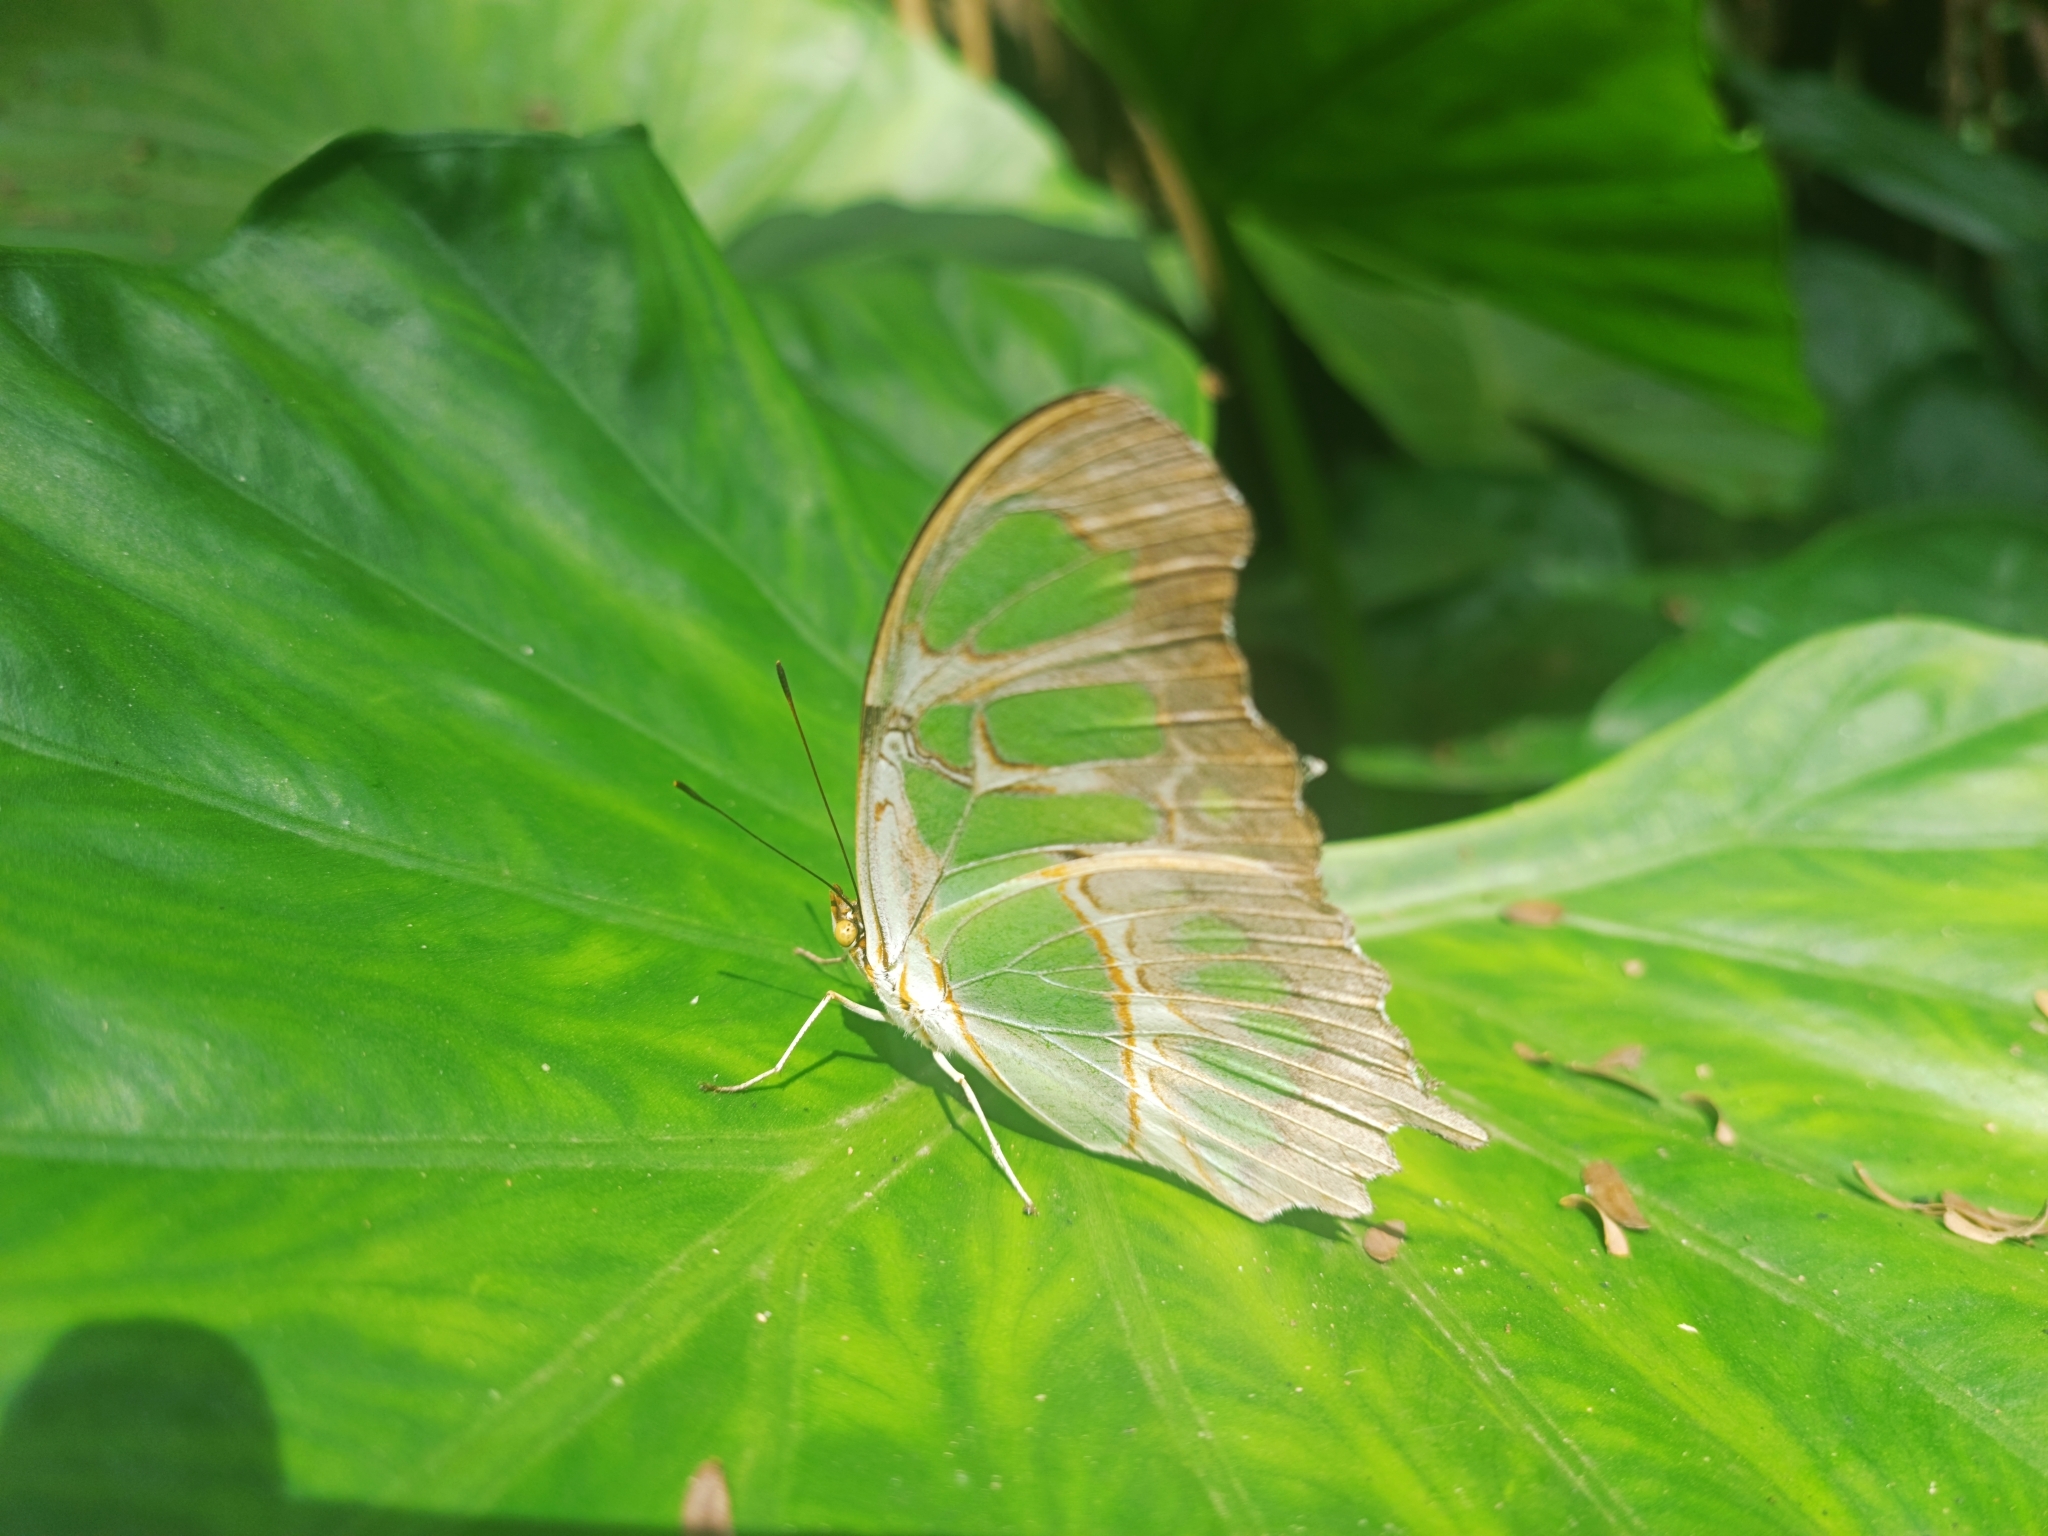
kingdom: Animalia
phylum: Arthropoda
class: Insecta
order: Lepidoptera
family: Nymphalidae
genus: Siproeta
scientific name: Siproeta stelenes
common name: Malachite
